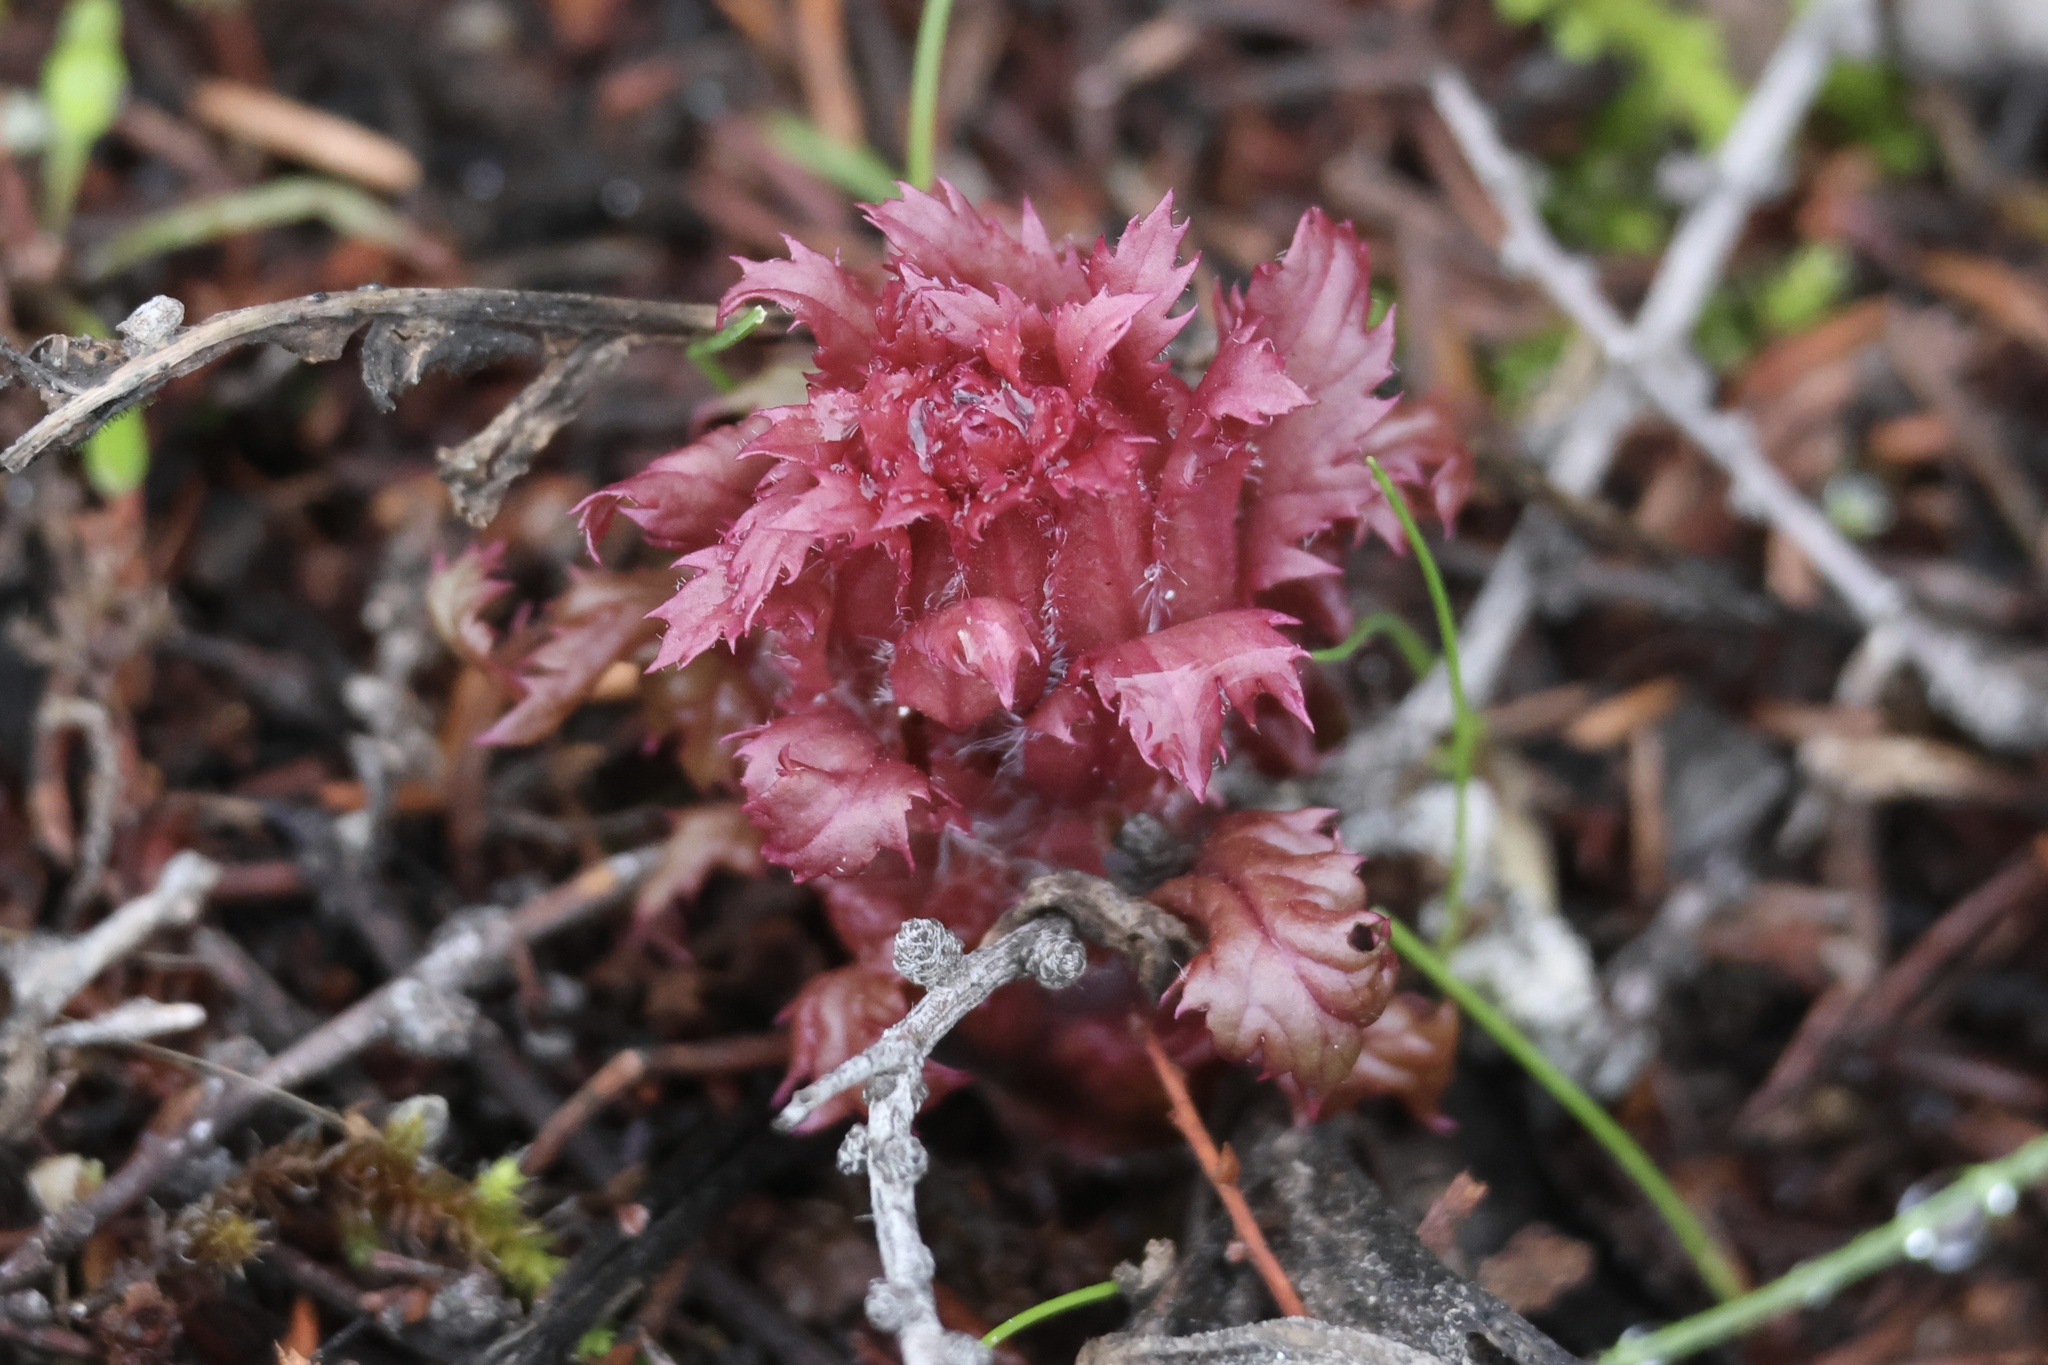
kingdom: Plantae
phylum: Tracheophyta
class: Magnoliopsida
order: Lamiales
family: Orobanchaceae
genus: Pedicularis
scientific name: Pedicularis densiflora
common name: Indian warrior
